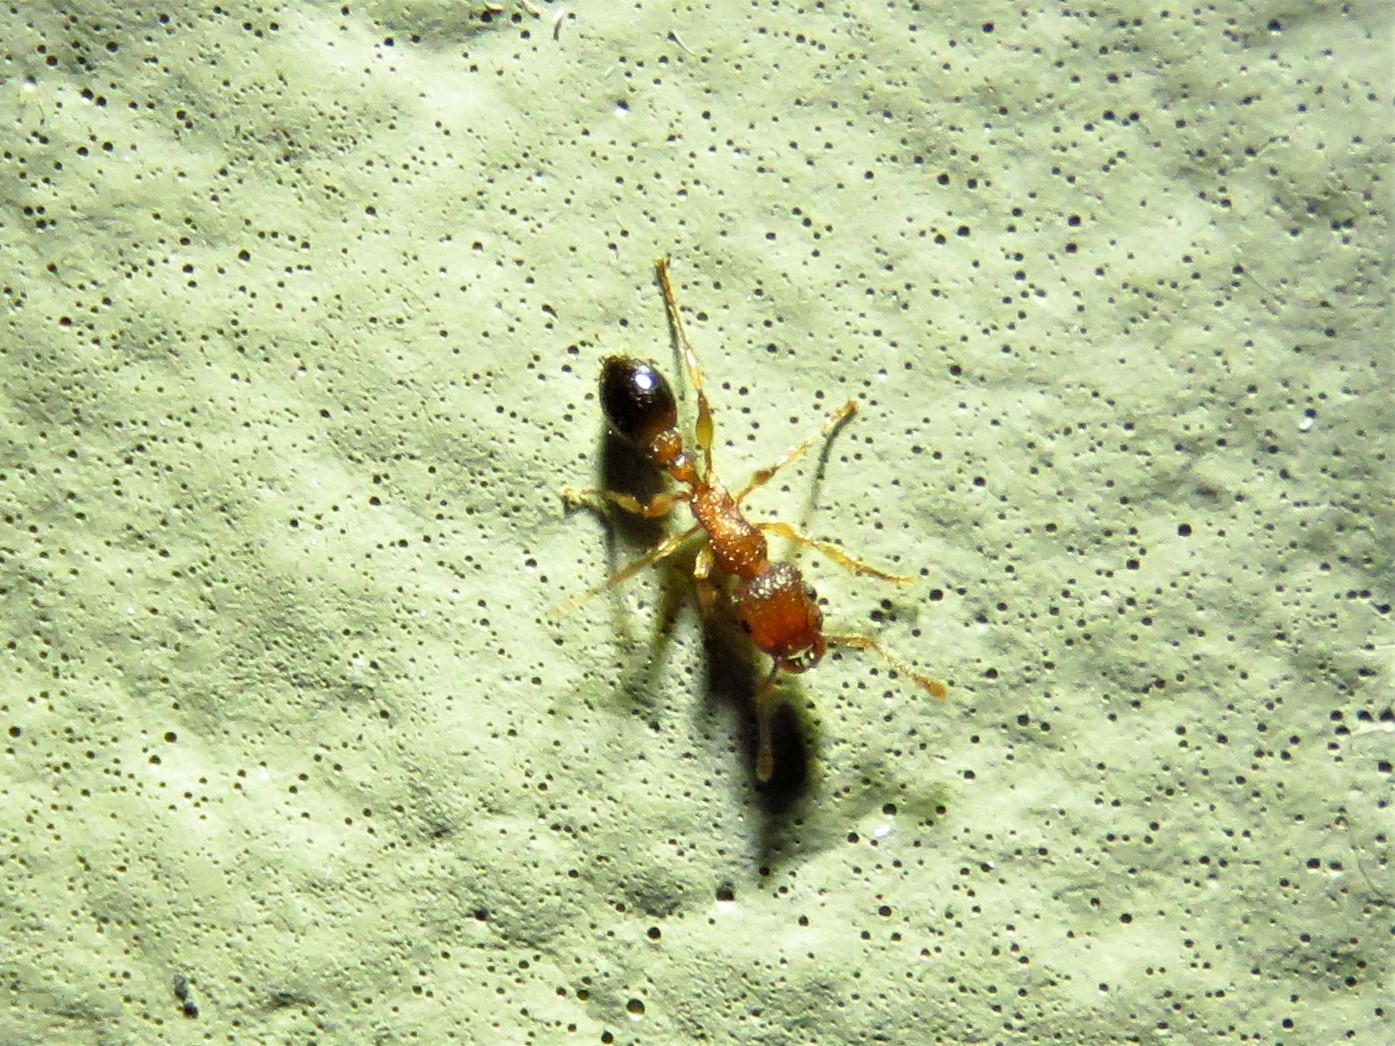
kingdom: Animalia
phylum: Arthropoda
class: Insecta
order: Hymenoptera
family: Formicidae
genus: Tetramorium
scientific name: Tetramorium bicarinatum
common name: Guinea ant
